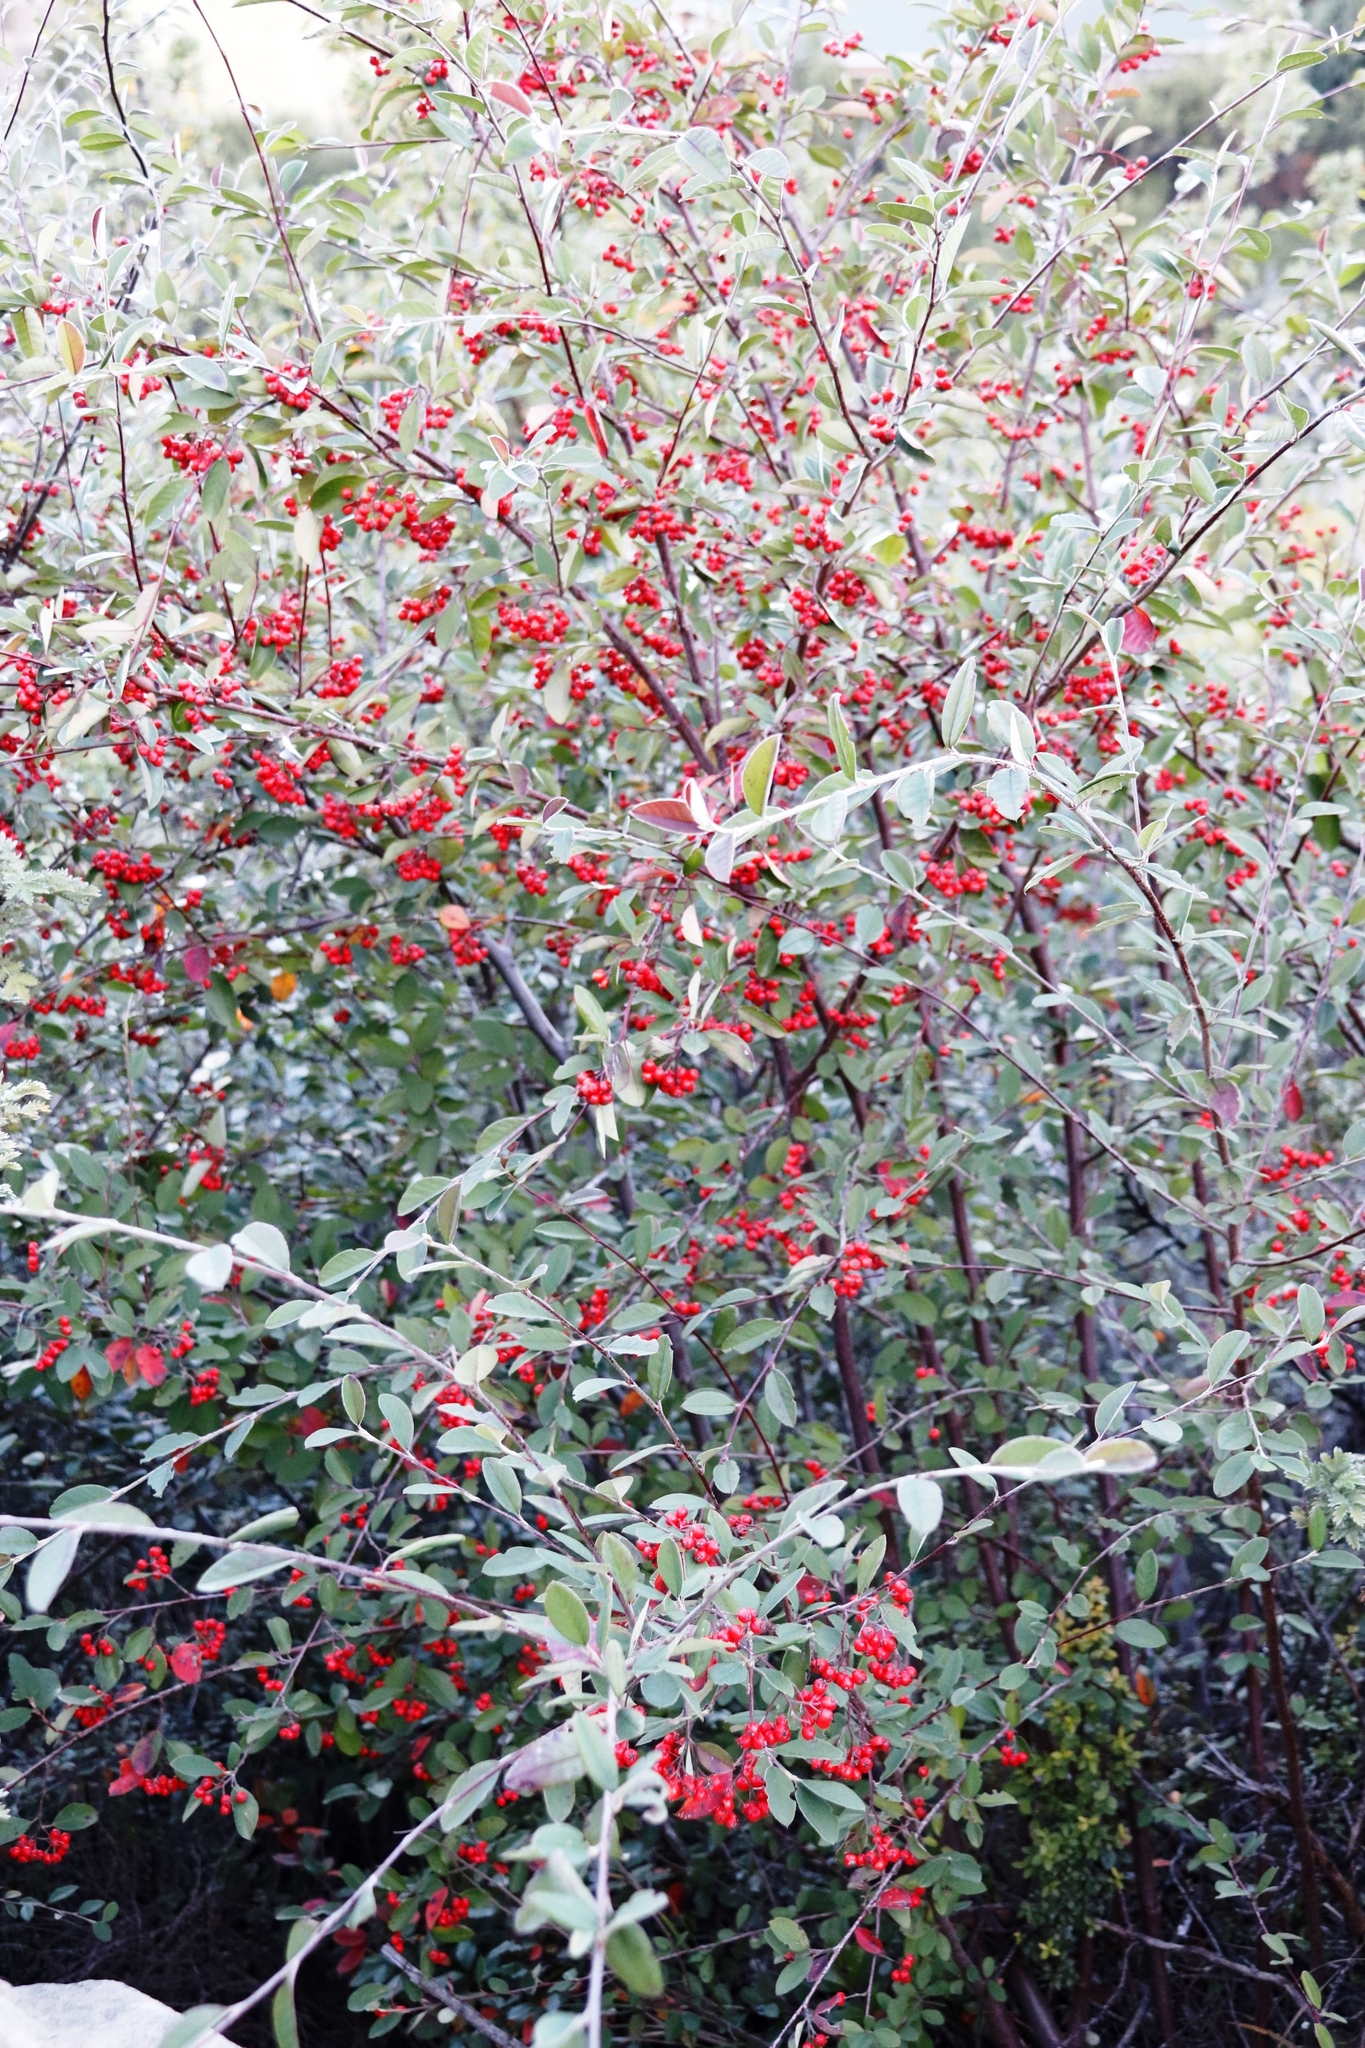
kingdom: Plantae
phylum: Tracheophyta
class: Magnoliopsida
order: Rosales
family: Rosaceae
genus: Cotoneaster
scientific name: Cotoneaster pannosus
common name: Silverleaf cotoneaster
